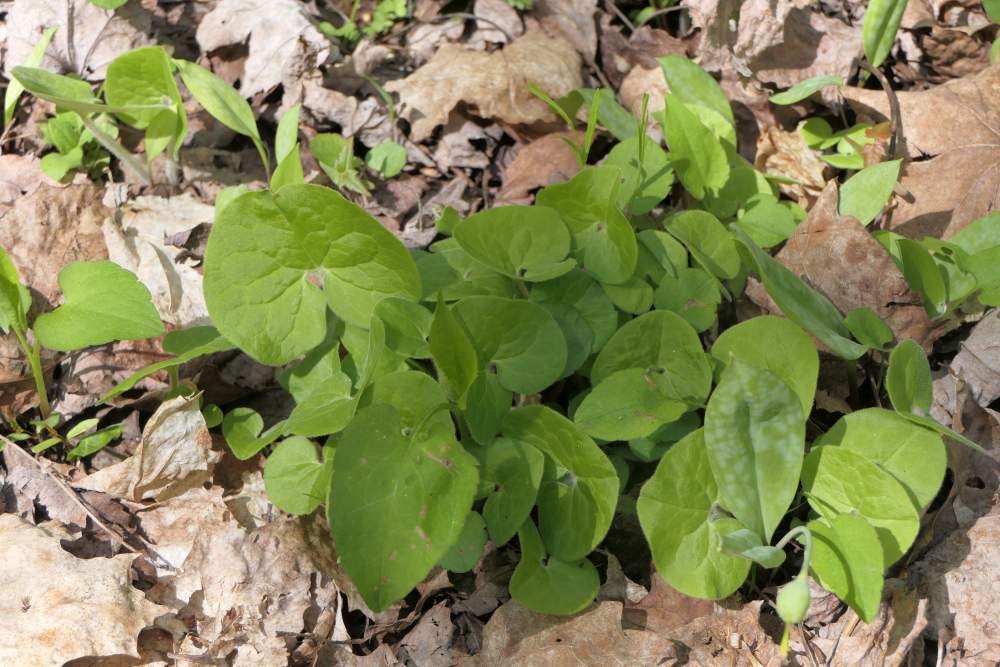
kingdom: Plantae
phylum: Tracheophyta
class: Magnoliopsida
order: Piperales
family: Aristolochiaceae
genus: Asarum
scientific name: Asarum canadense
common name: Wild ginger
